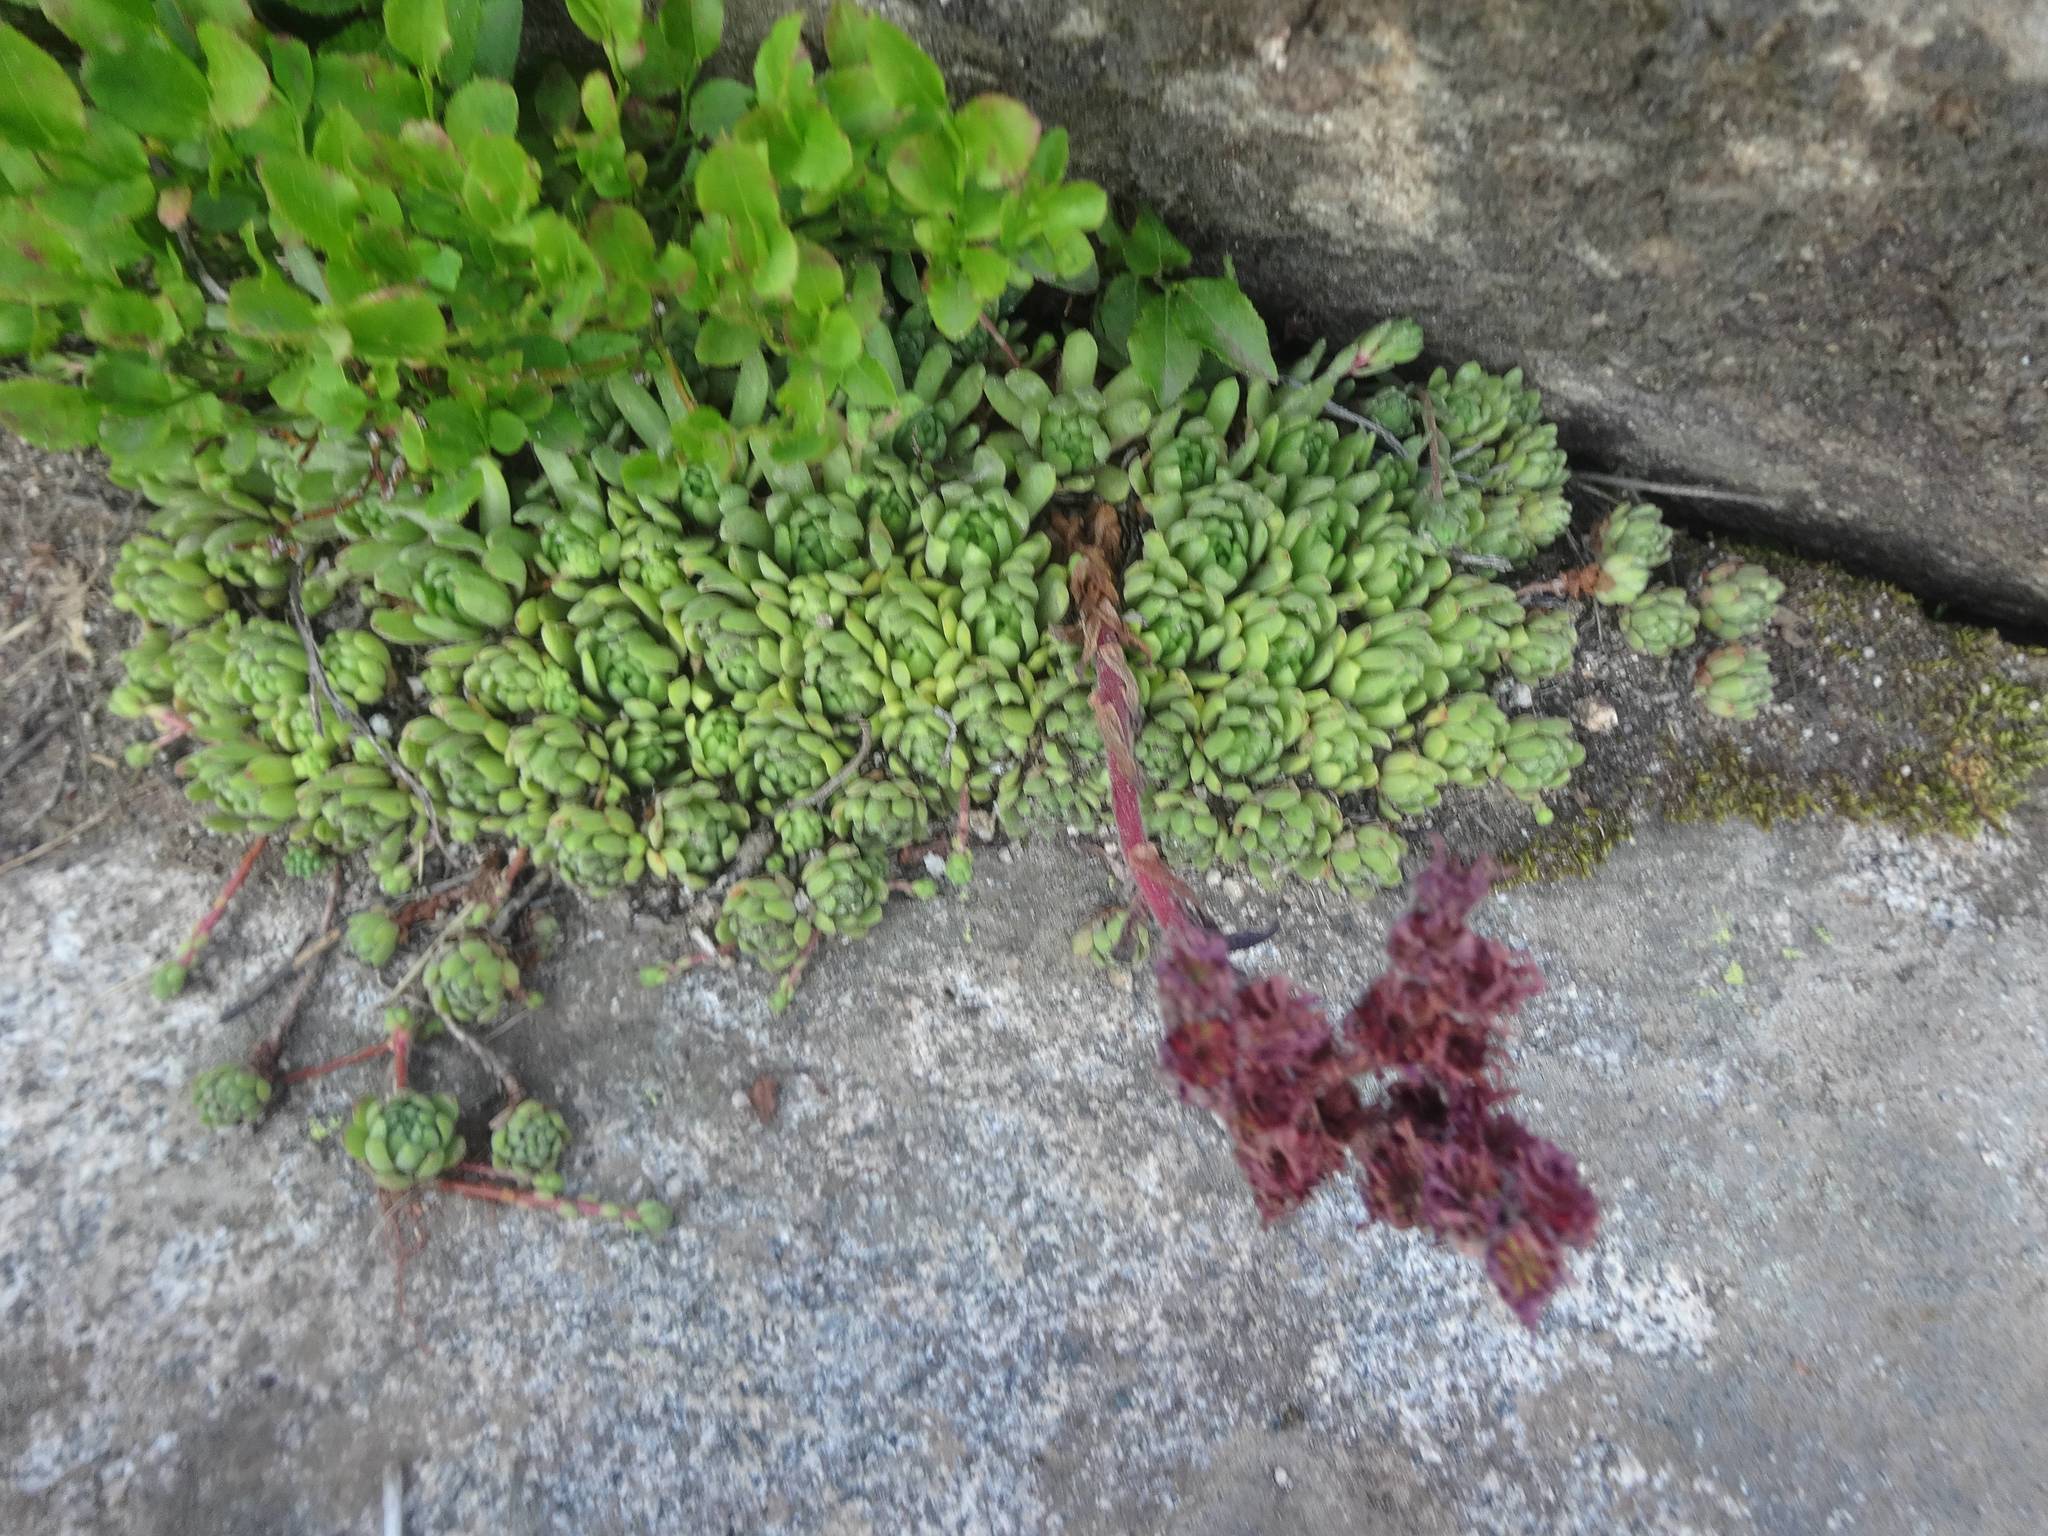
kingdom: Plantae
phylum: Tracheophyta
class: Magnoliopsida
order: Saxifragales
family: Crassulaceae
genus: Sempervivum
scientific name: Sempervivum montanum
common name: Mountain house-leek
